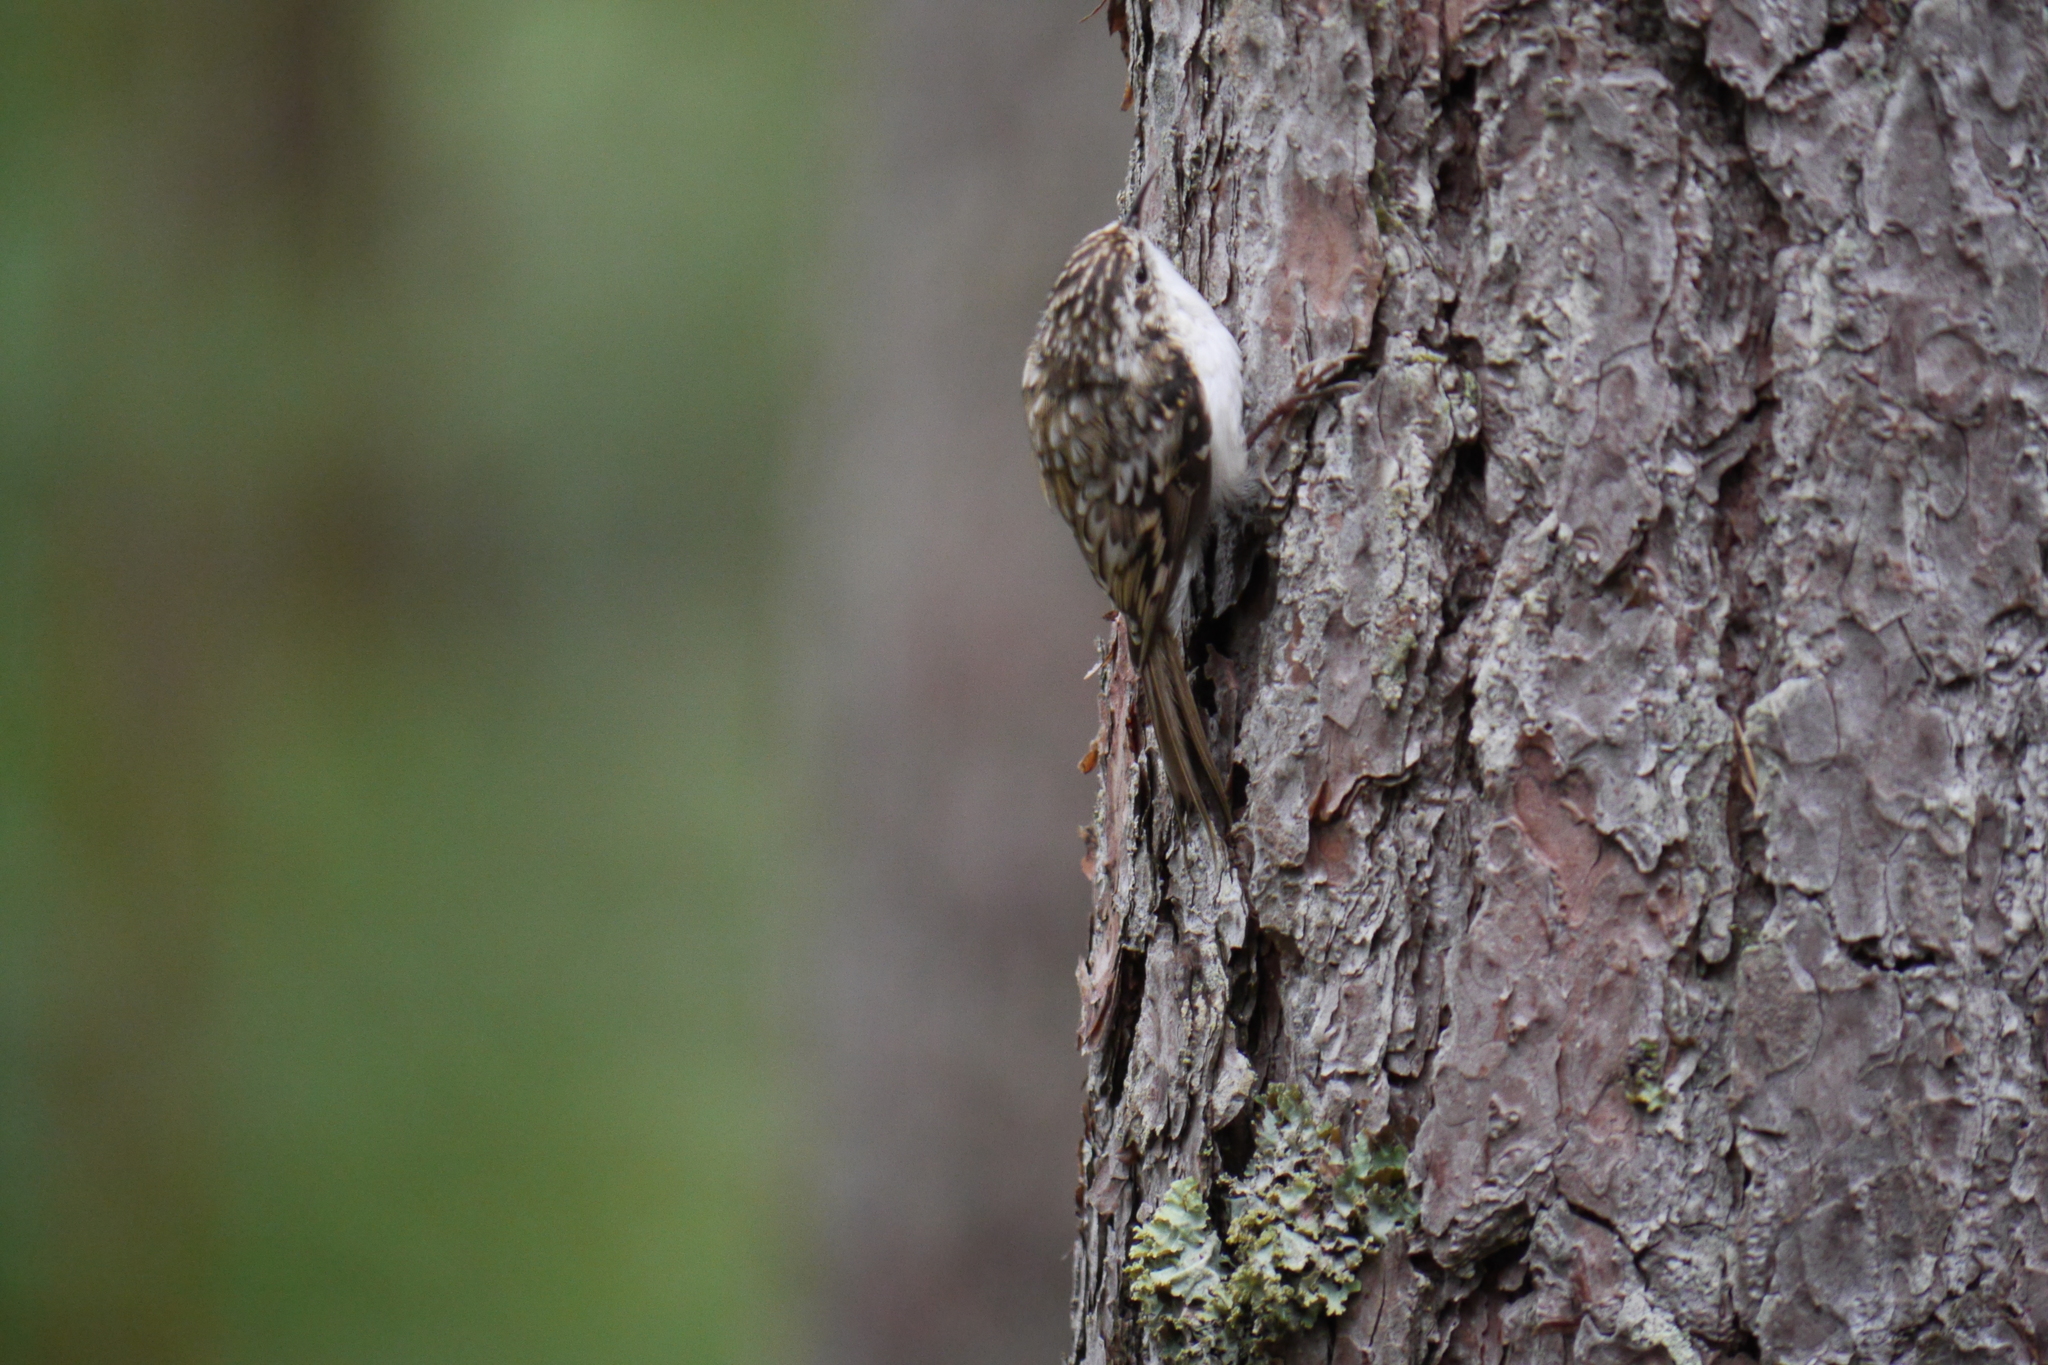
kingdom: Animalia
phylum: Chordata
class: Aves
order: Passeriformes
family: Certhiidae
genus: Certhia
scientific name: Certhia familiaris
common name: Eurasian treecreeper
